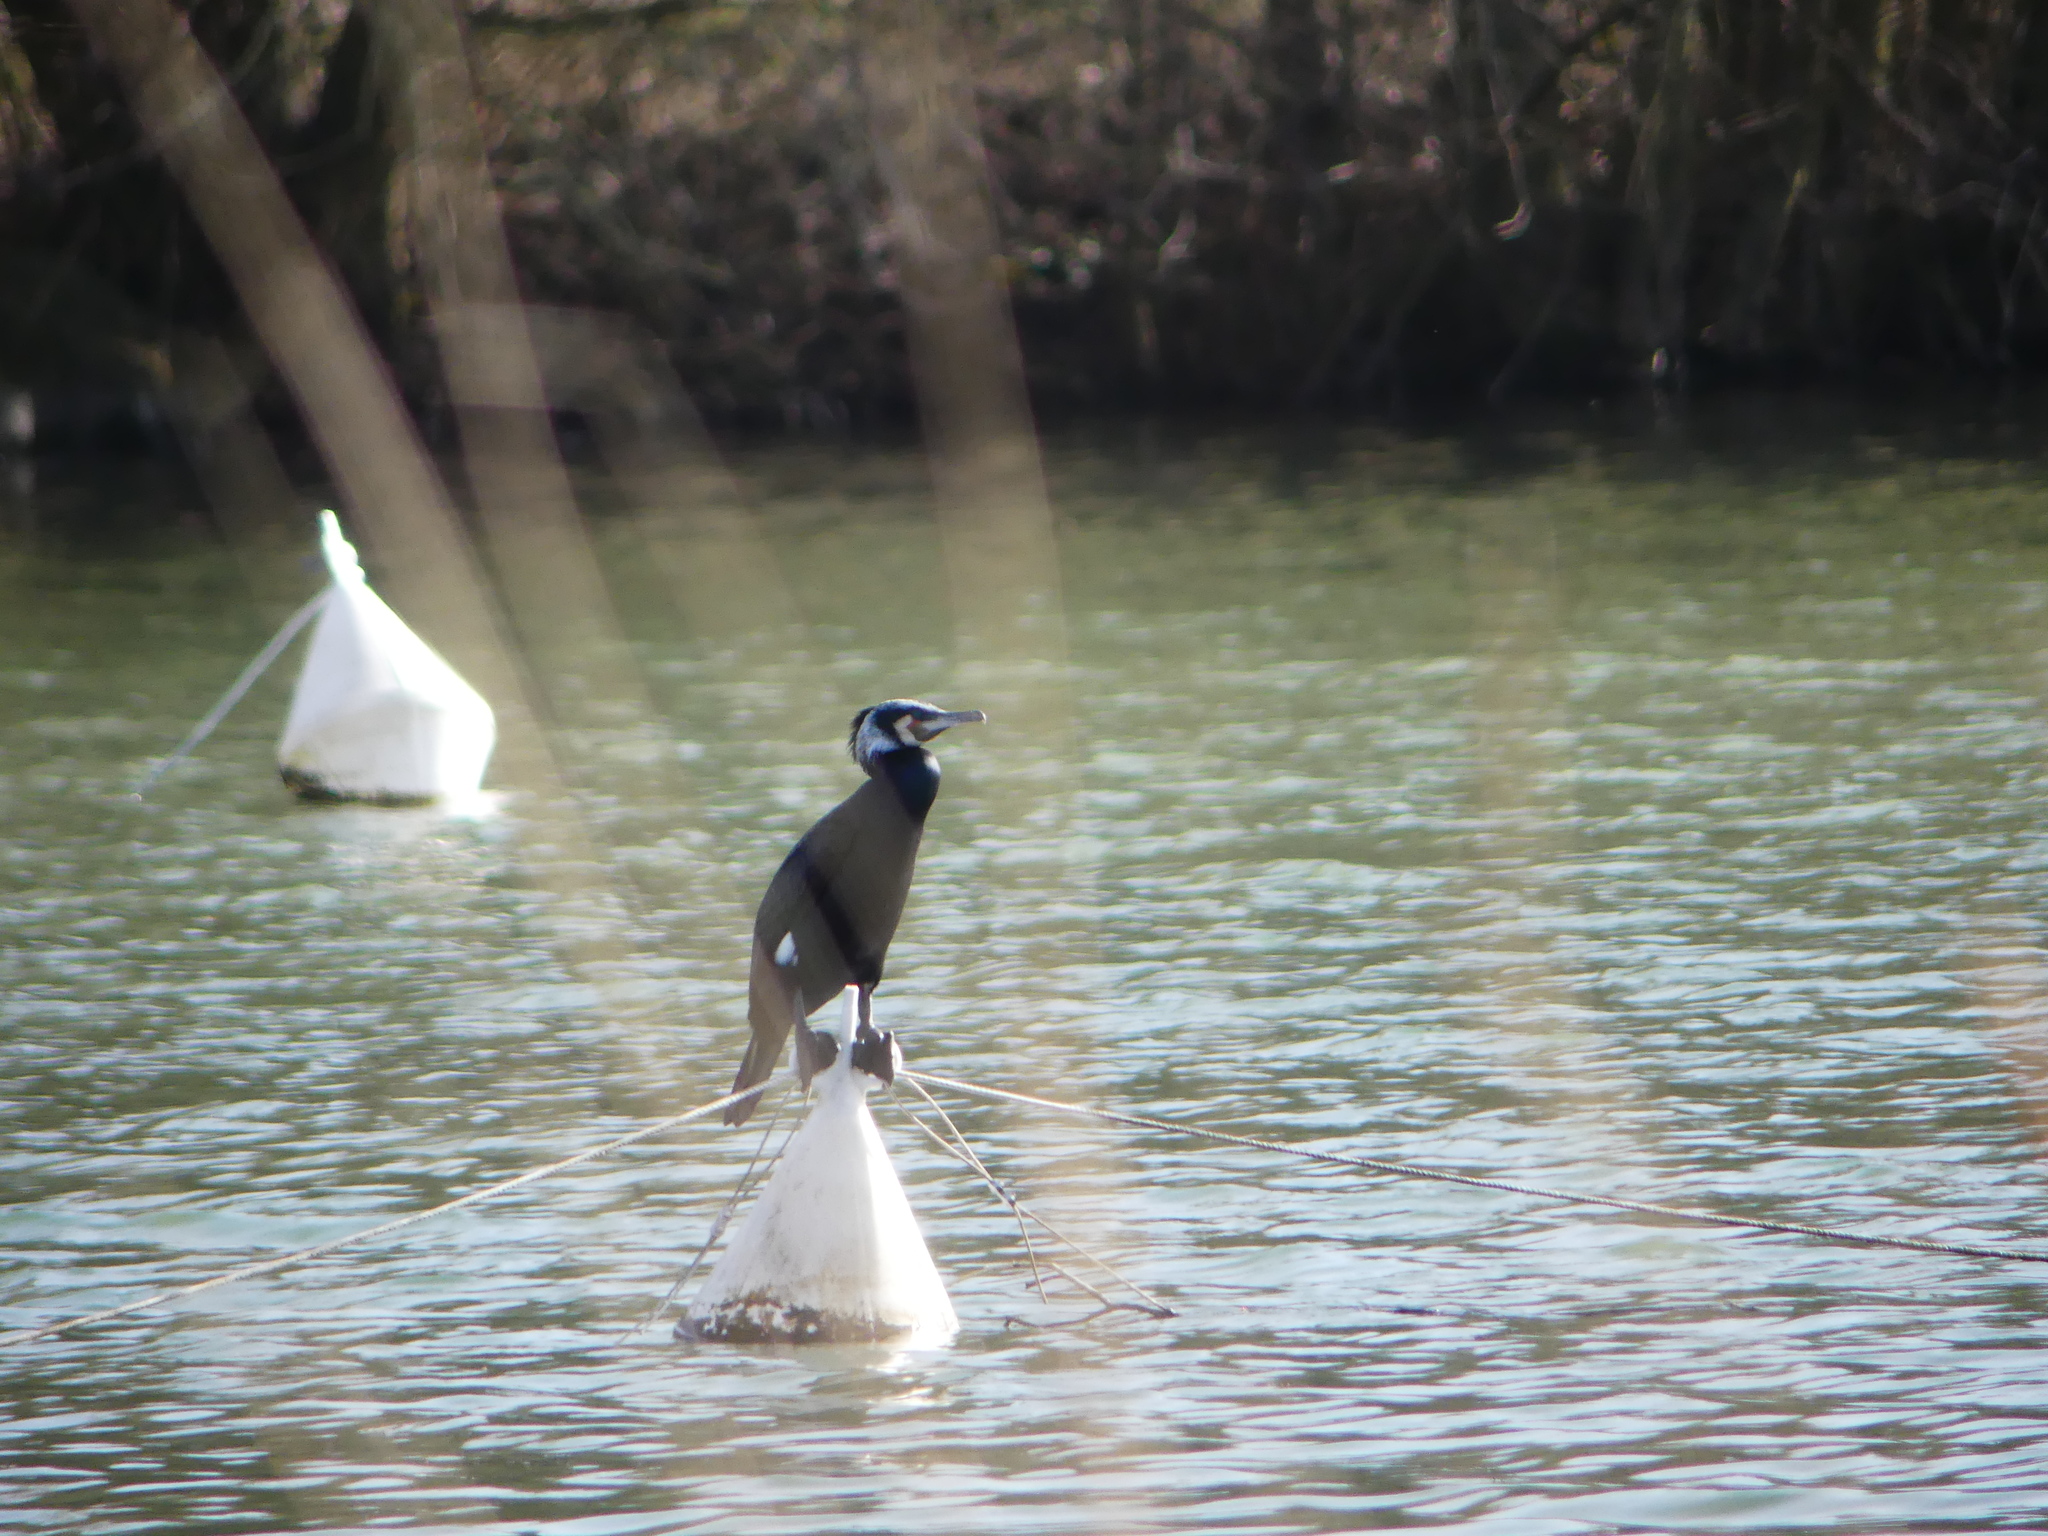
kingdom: Animalia
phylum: Chordata
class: Aves
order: Suliformes
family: Phalacrocoracidae
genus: Phalacrocorax
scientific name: Phalacrocorax carbo
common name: Great cormorant
